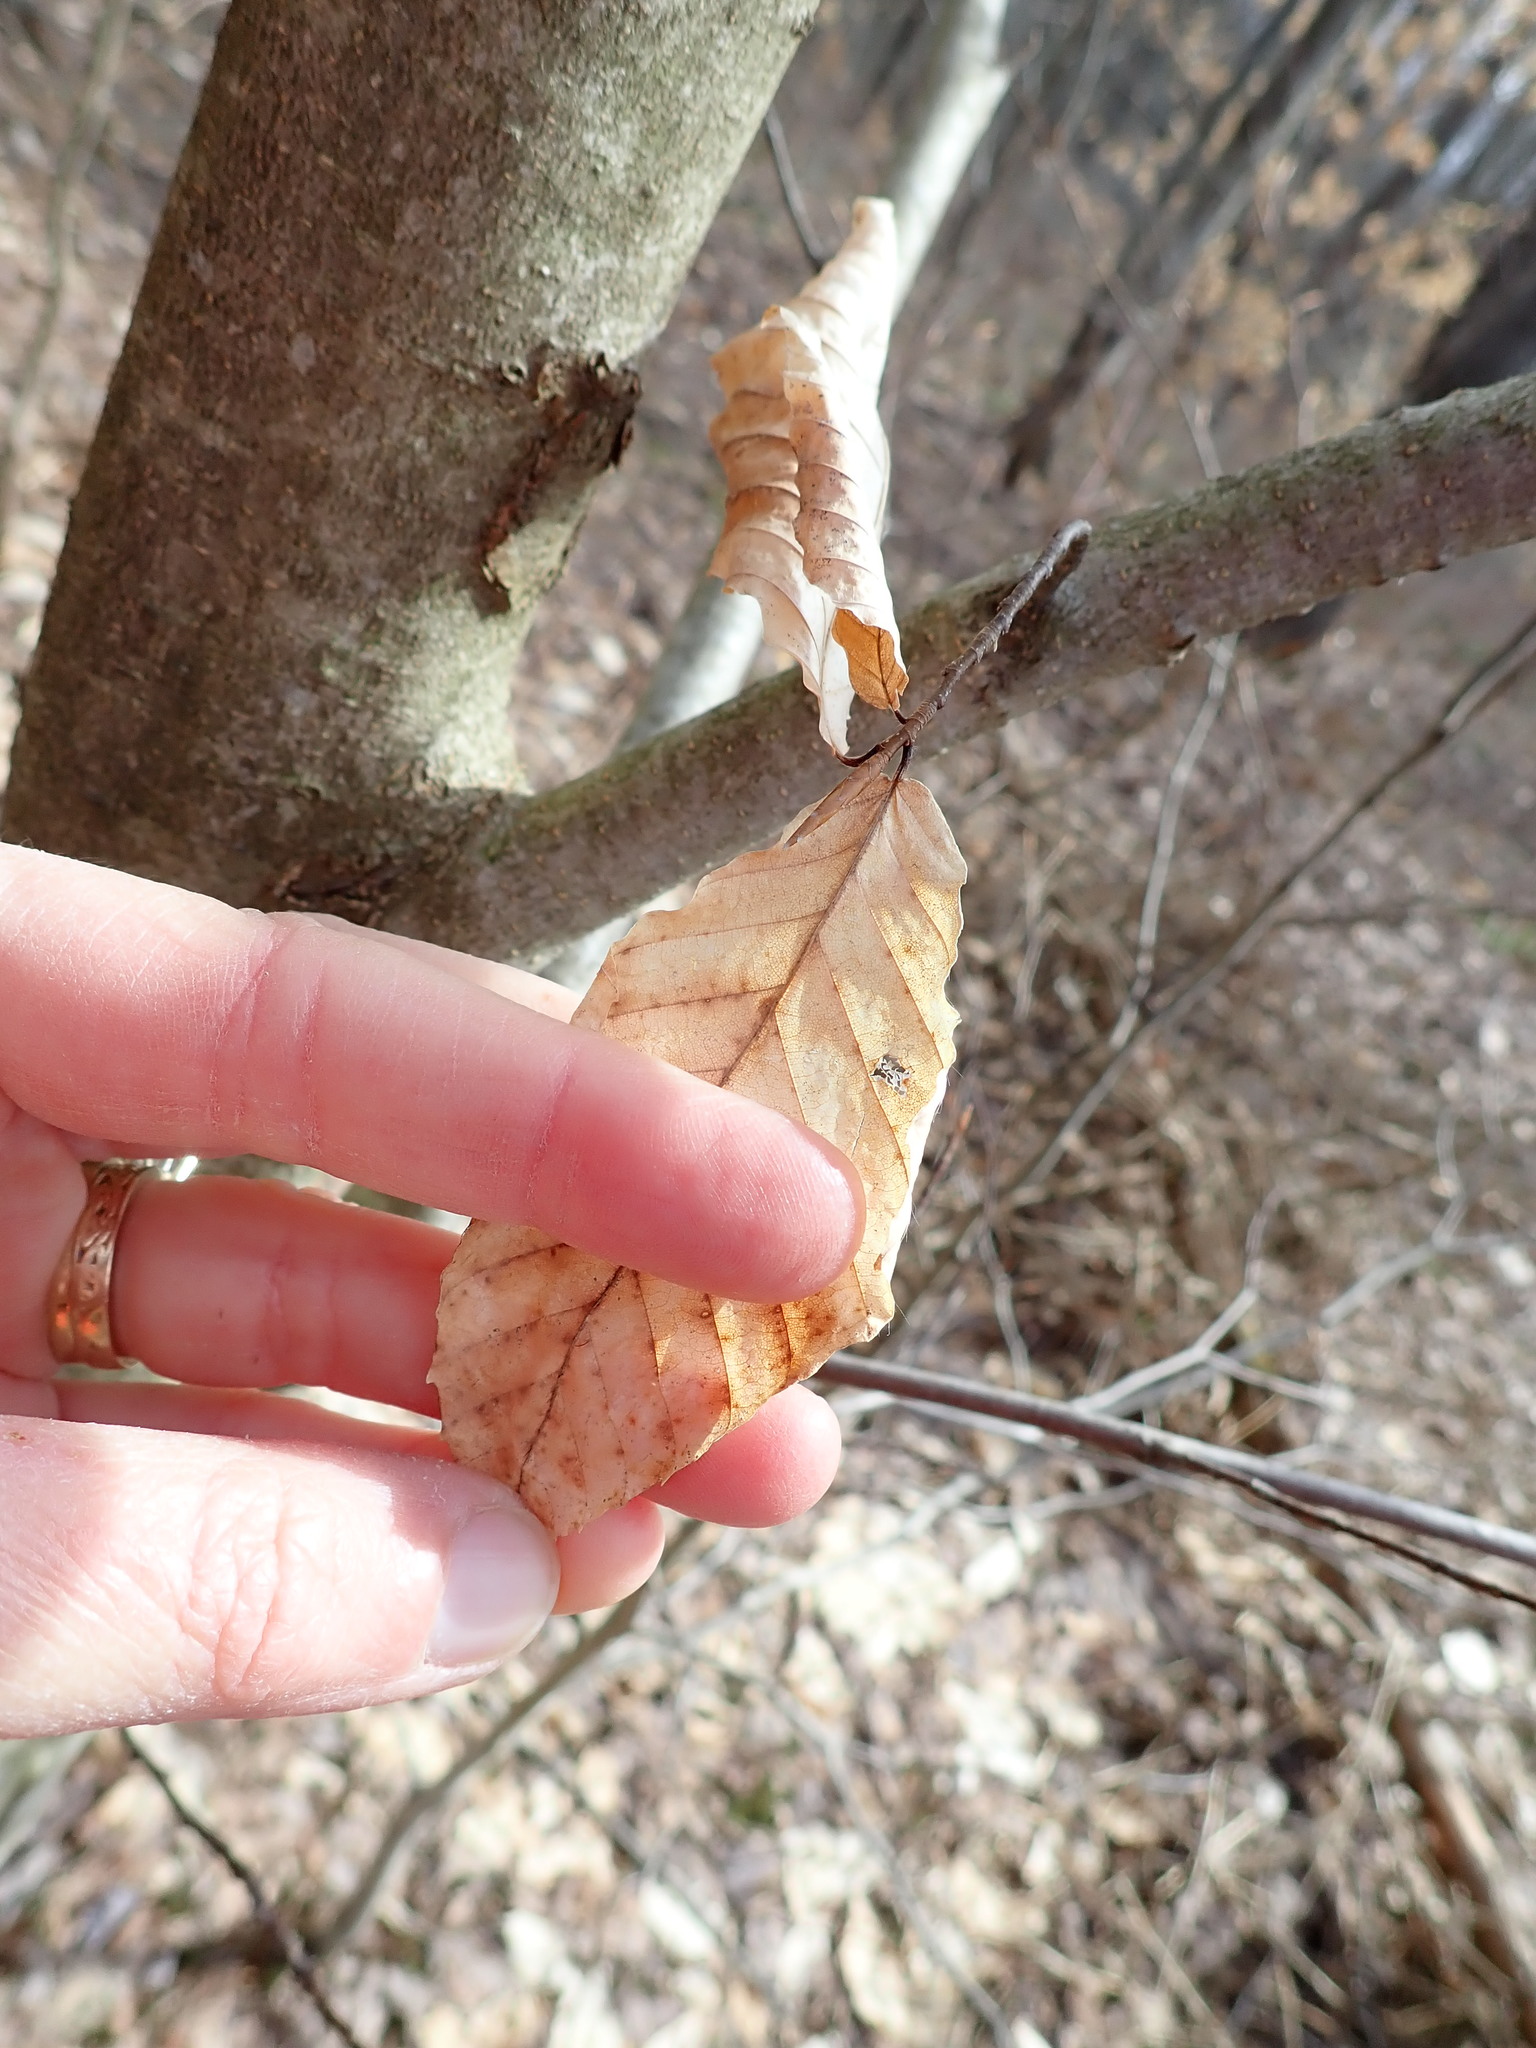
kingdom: Plantae
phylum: Tracheophyta
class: Magnoliopsida
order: Fagales
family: Fagaceae
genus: Fagus
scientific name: Fagus grandifolia
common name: American beech
